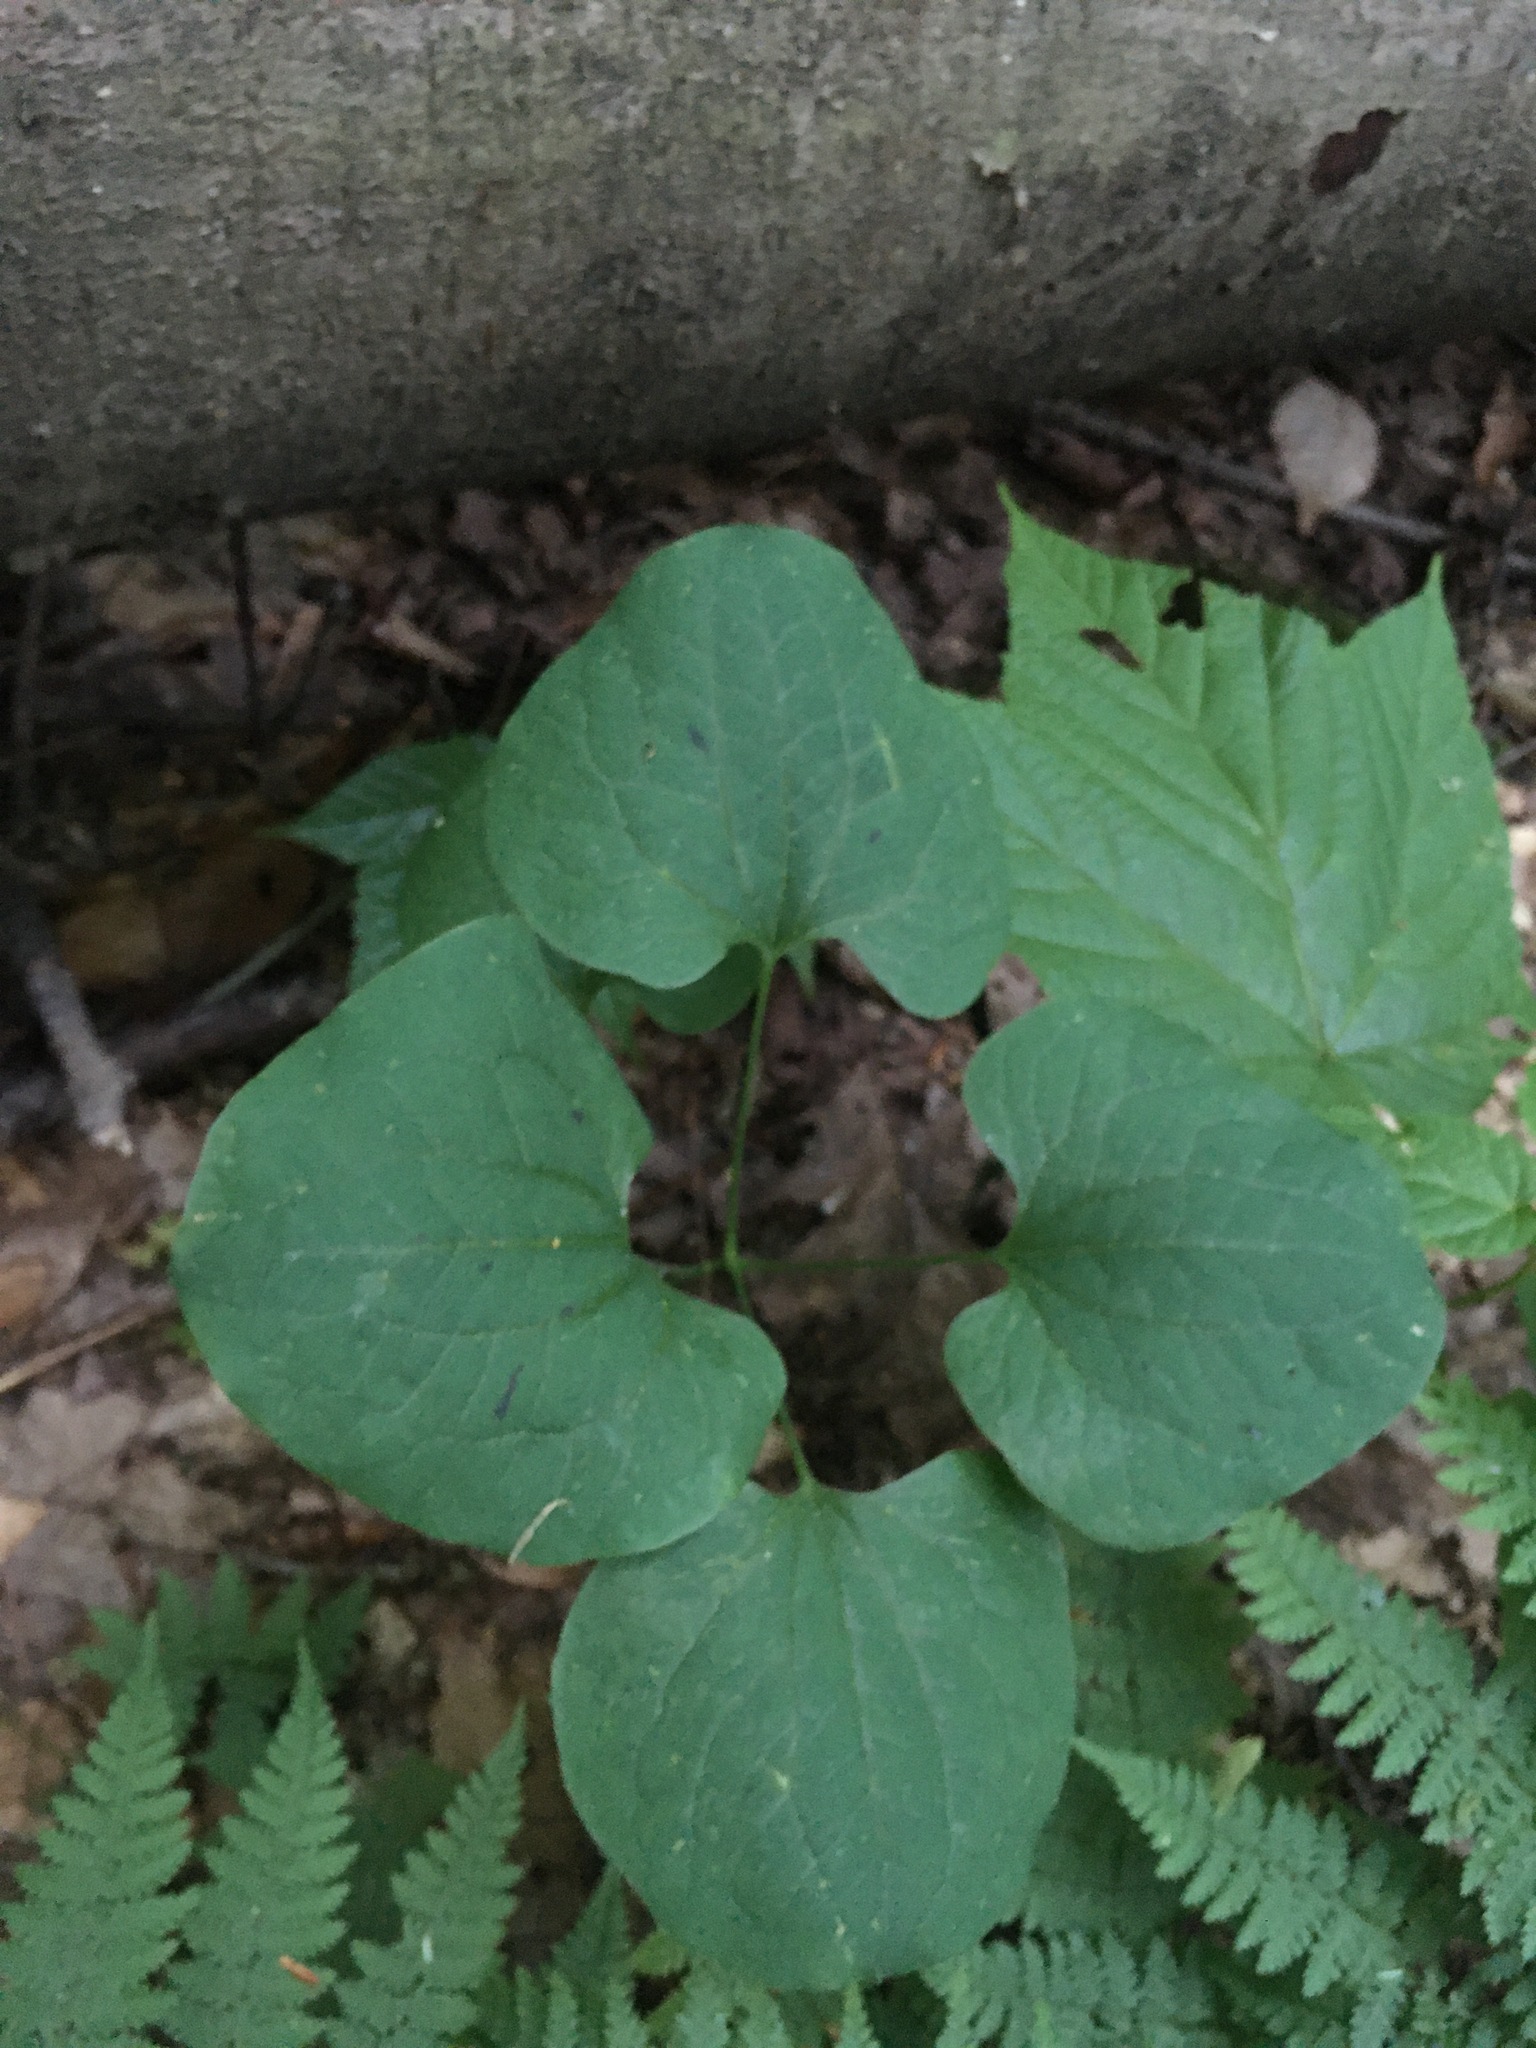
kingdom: Plantae
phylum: Tracheophyta
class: Liliopsida
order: Liliales
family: Smilacaceae
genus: Smilax
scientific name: Smilax herbacea
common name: Jacob's-ladder
